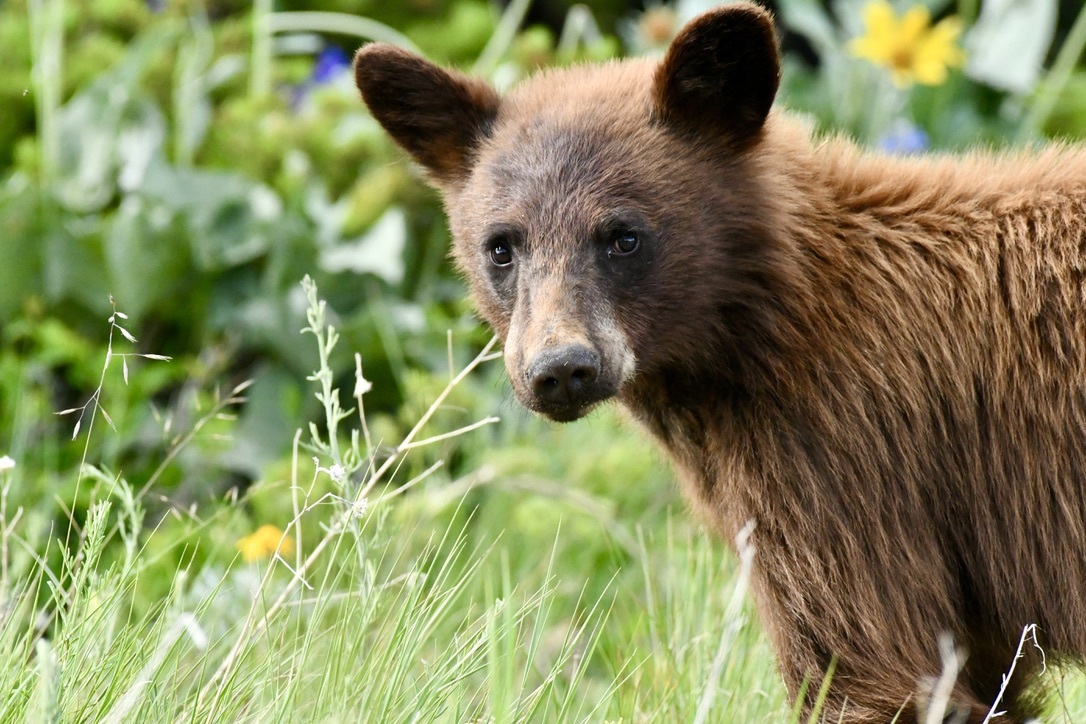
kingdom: Animalia
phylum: Chordata
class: Mammalia
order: Carnivora
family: Ursidae
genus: Ursus
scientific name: Ursus americanus
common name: American black bear
